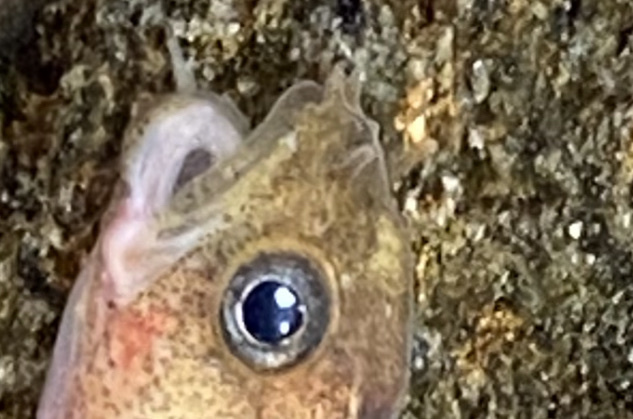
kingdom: Animalia
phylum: Chordata
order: Gadiformes
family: Lotidae
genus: Ciliata
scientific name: Ciliata septentrionalis
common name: Northern rockling
